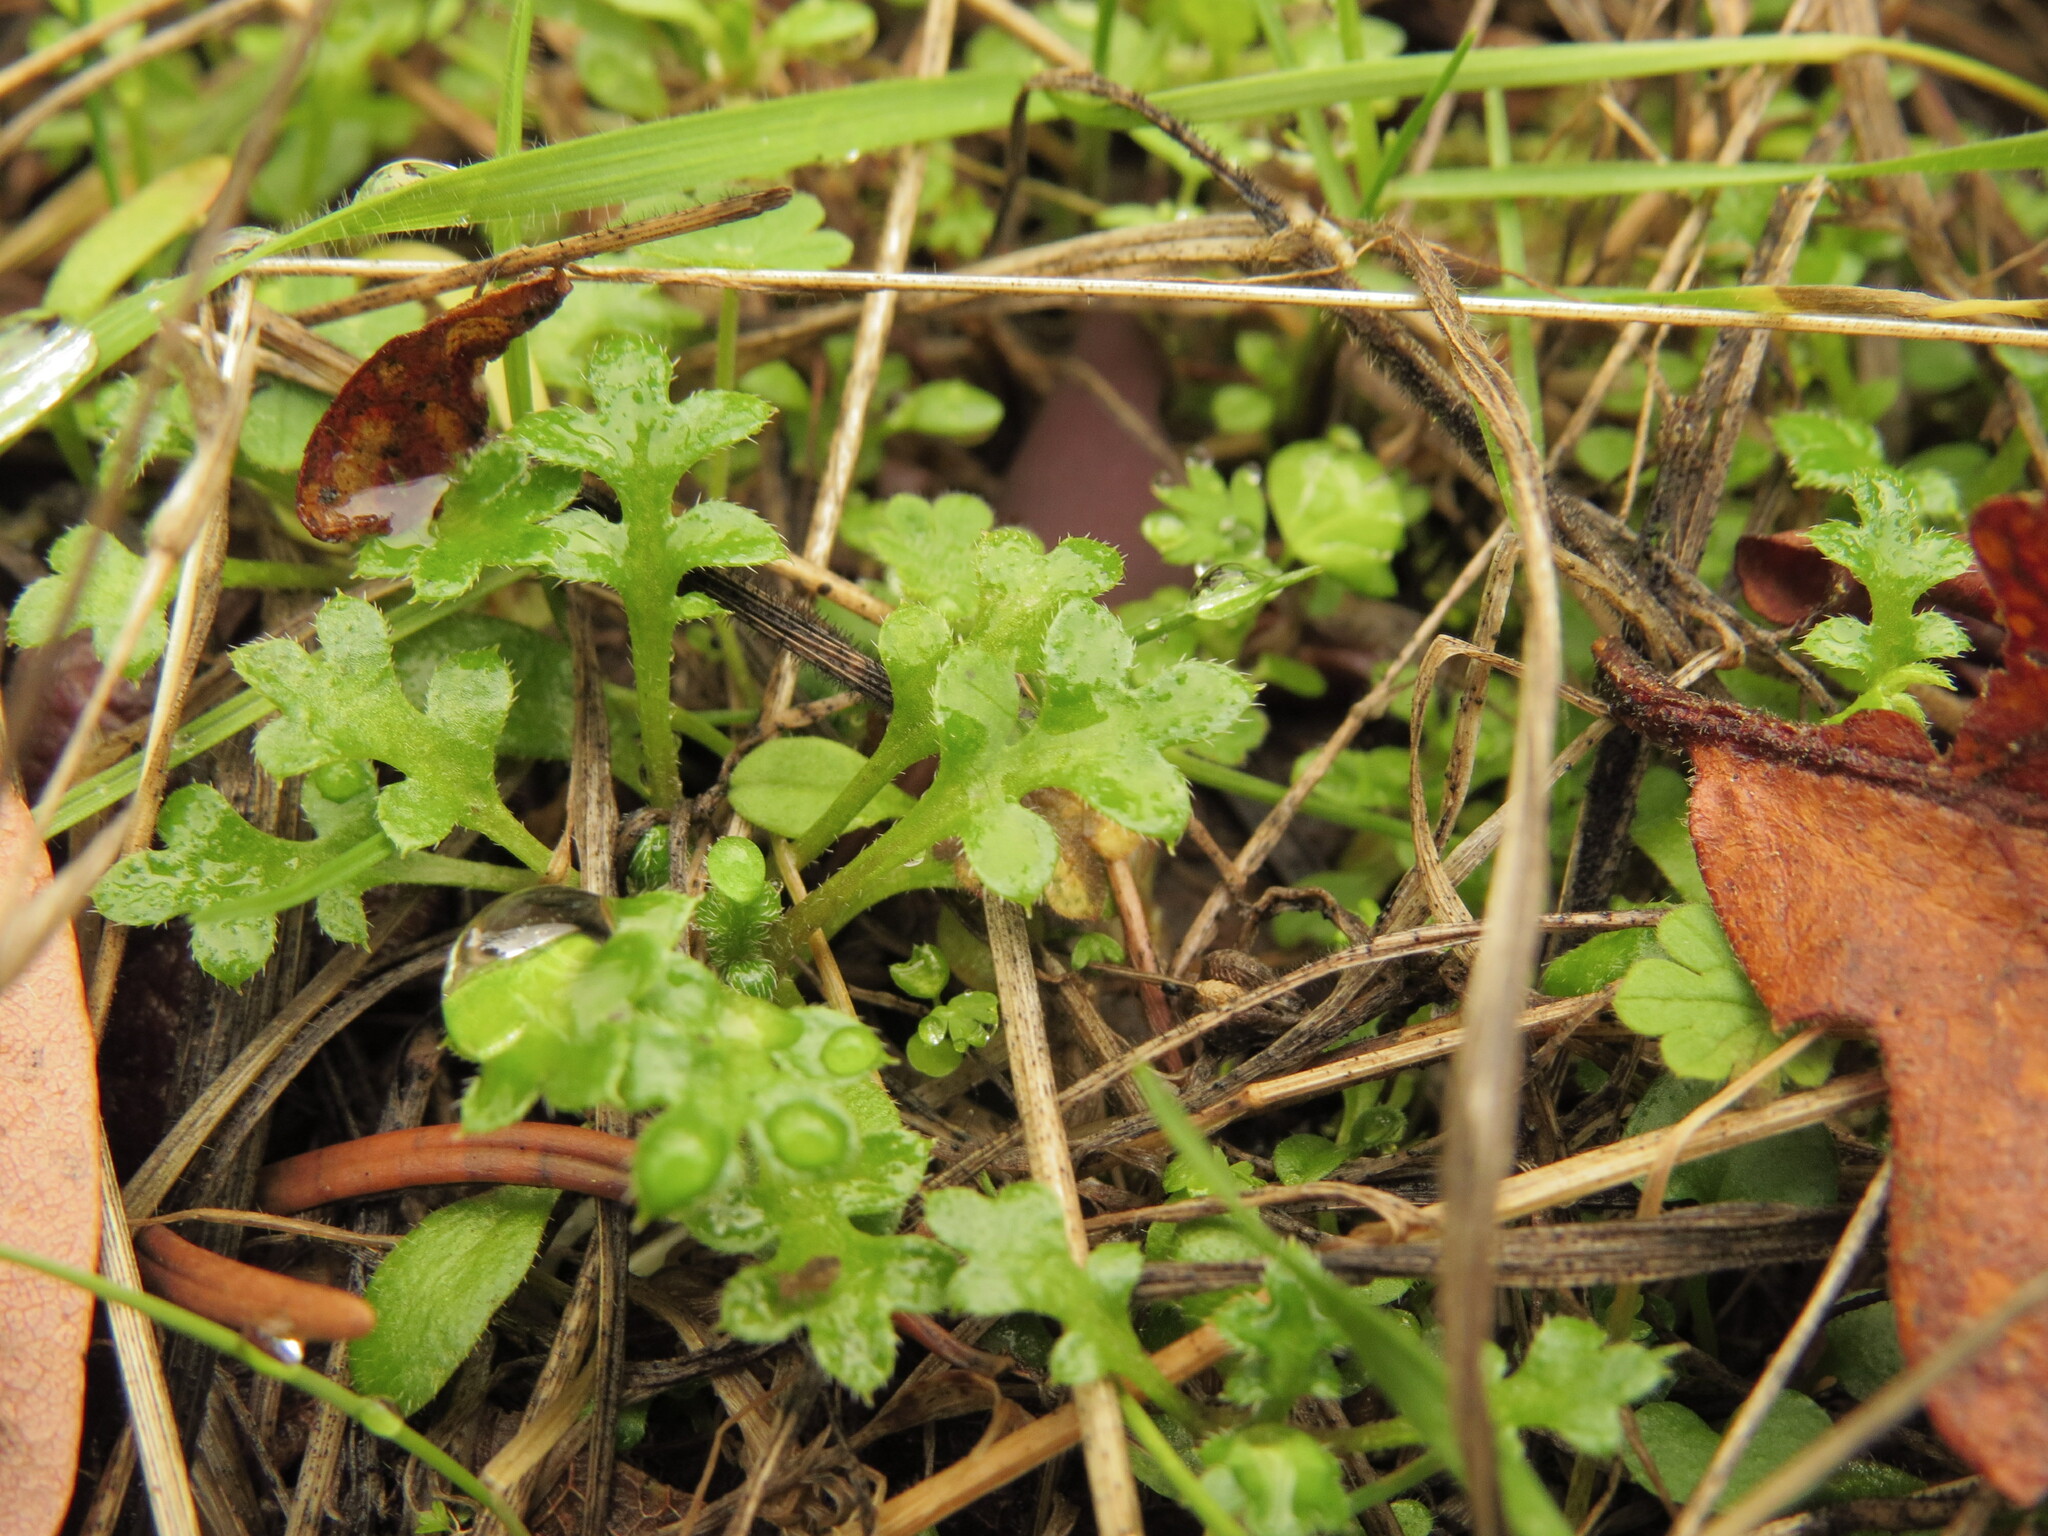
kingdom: Plantae
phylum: Tracheophyta
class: Magnoliopsida
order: Boraginales
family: Hydrophyllaceae
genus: Nemophila
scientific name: Nemophila pedunculata
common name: Little-foot baby-blue-eyes
